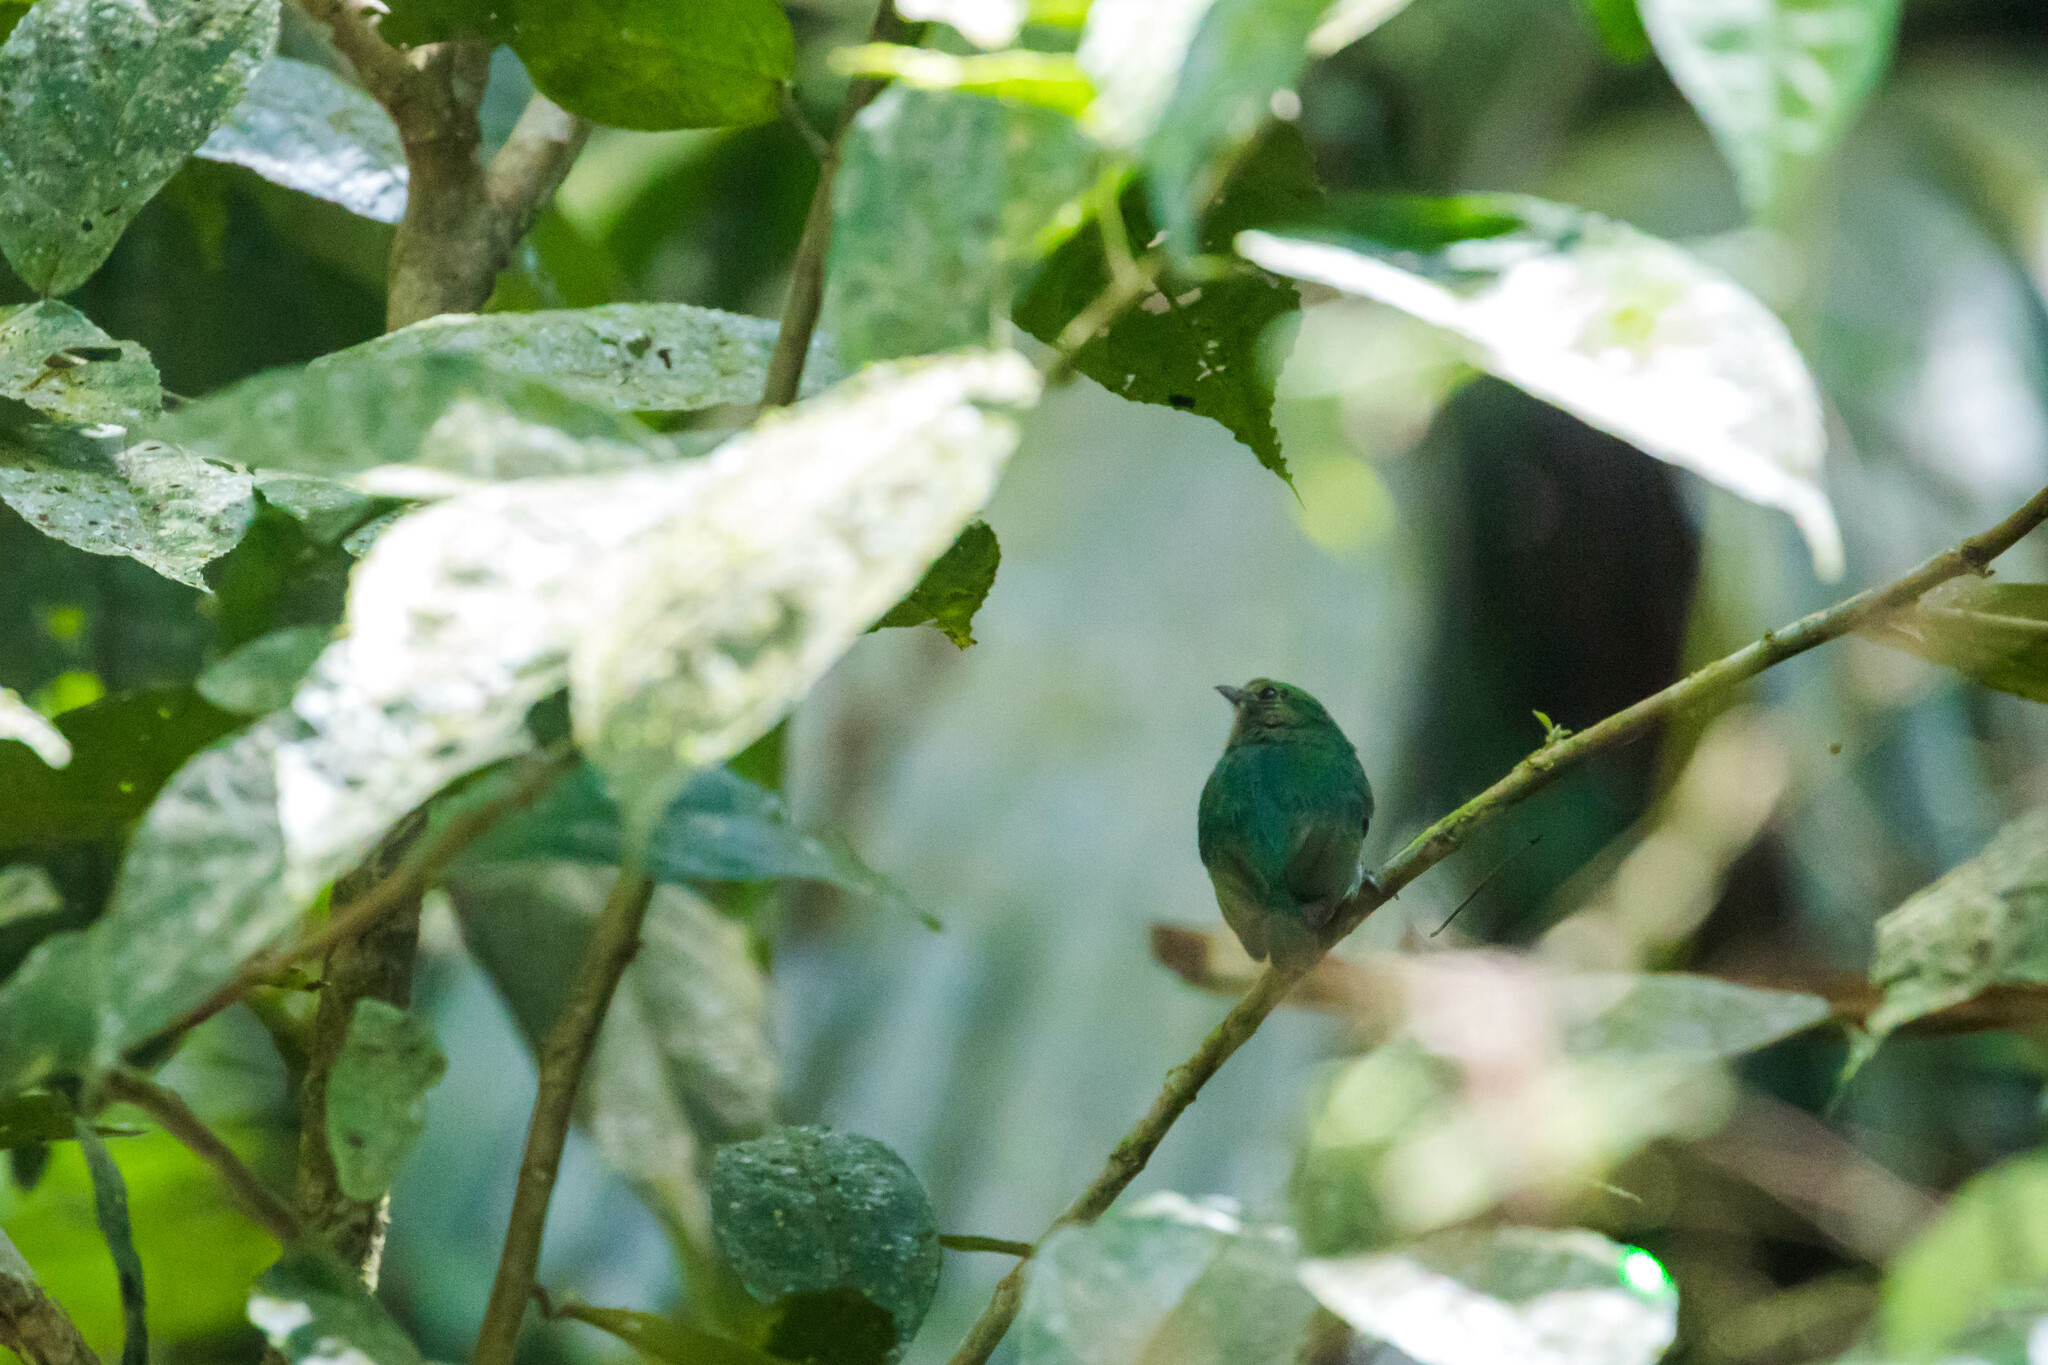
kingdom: Animalia
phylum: Chordata
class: Aves
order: Passeriformes
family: Pipridae
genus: Lepidothrix
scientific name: Lepidothrix coronata
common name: Blue-crowned manakin
